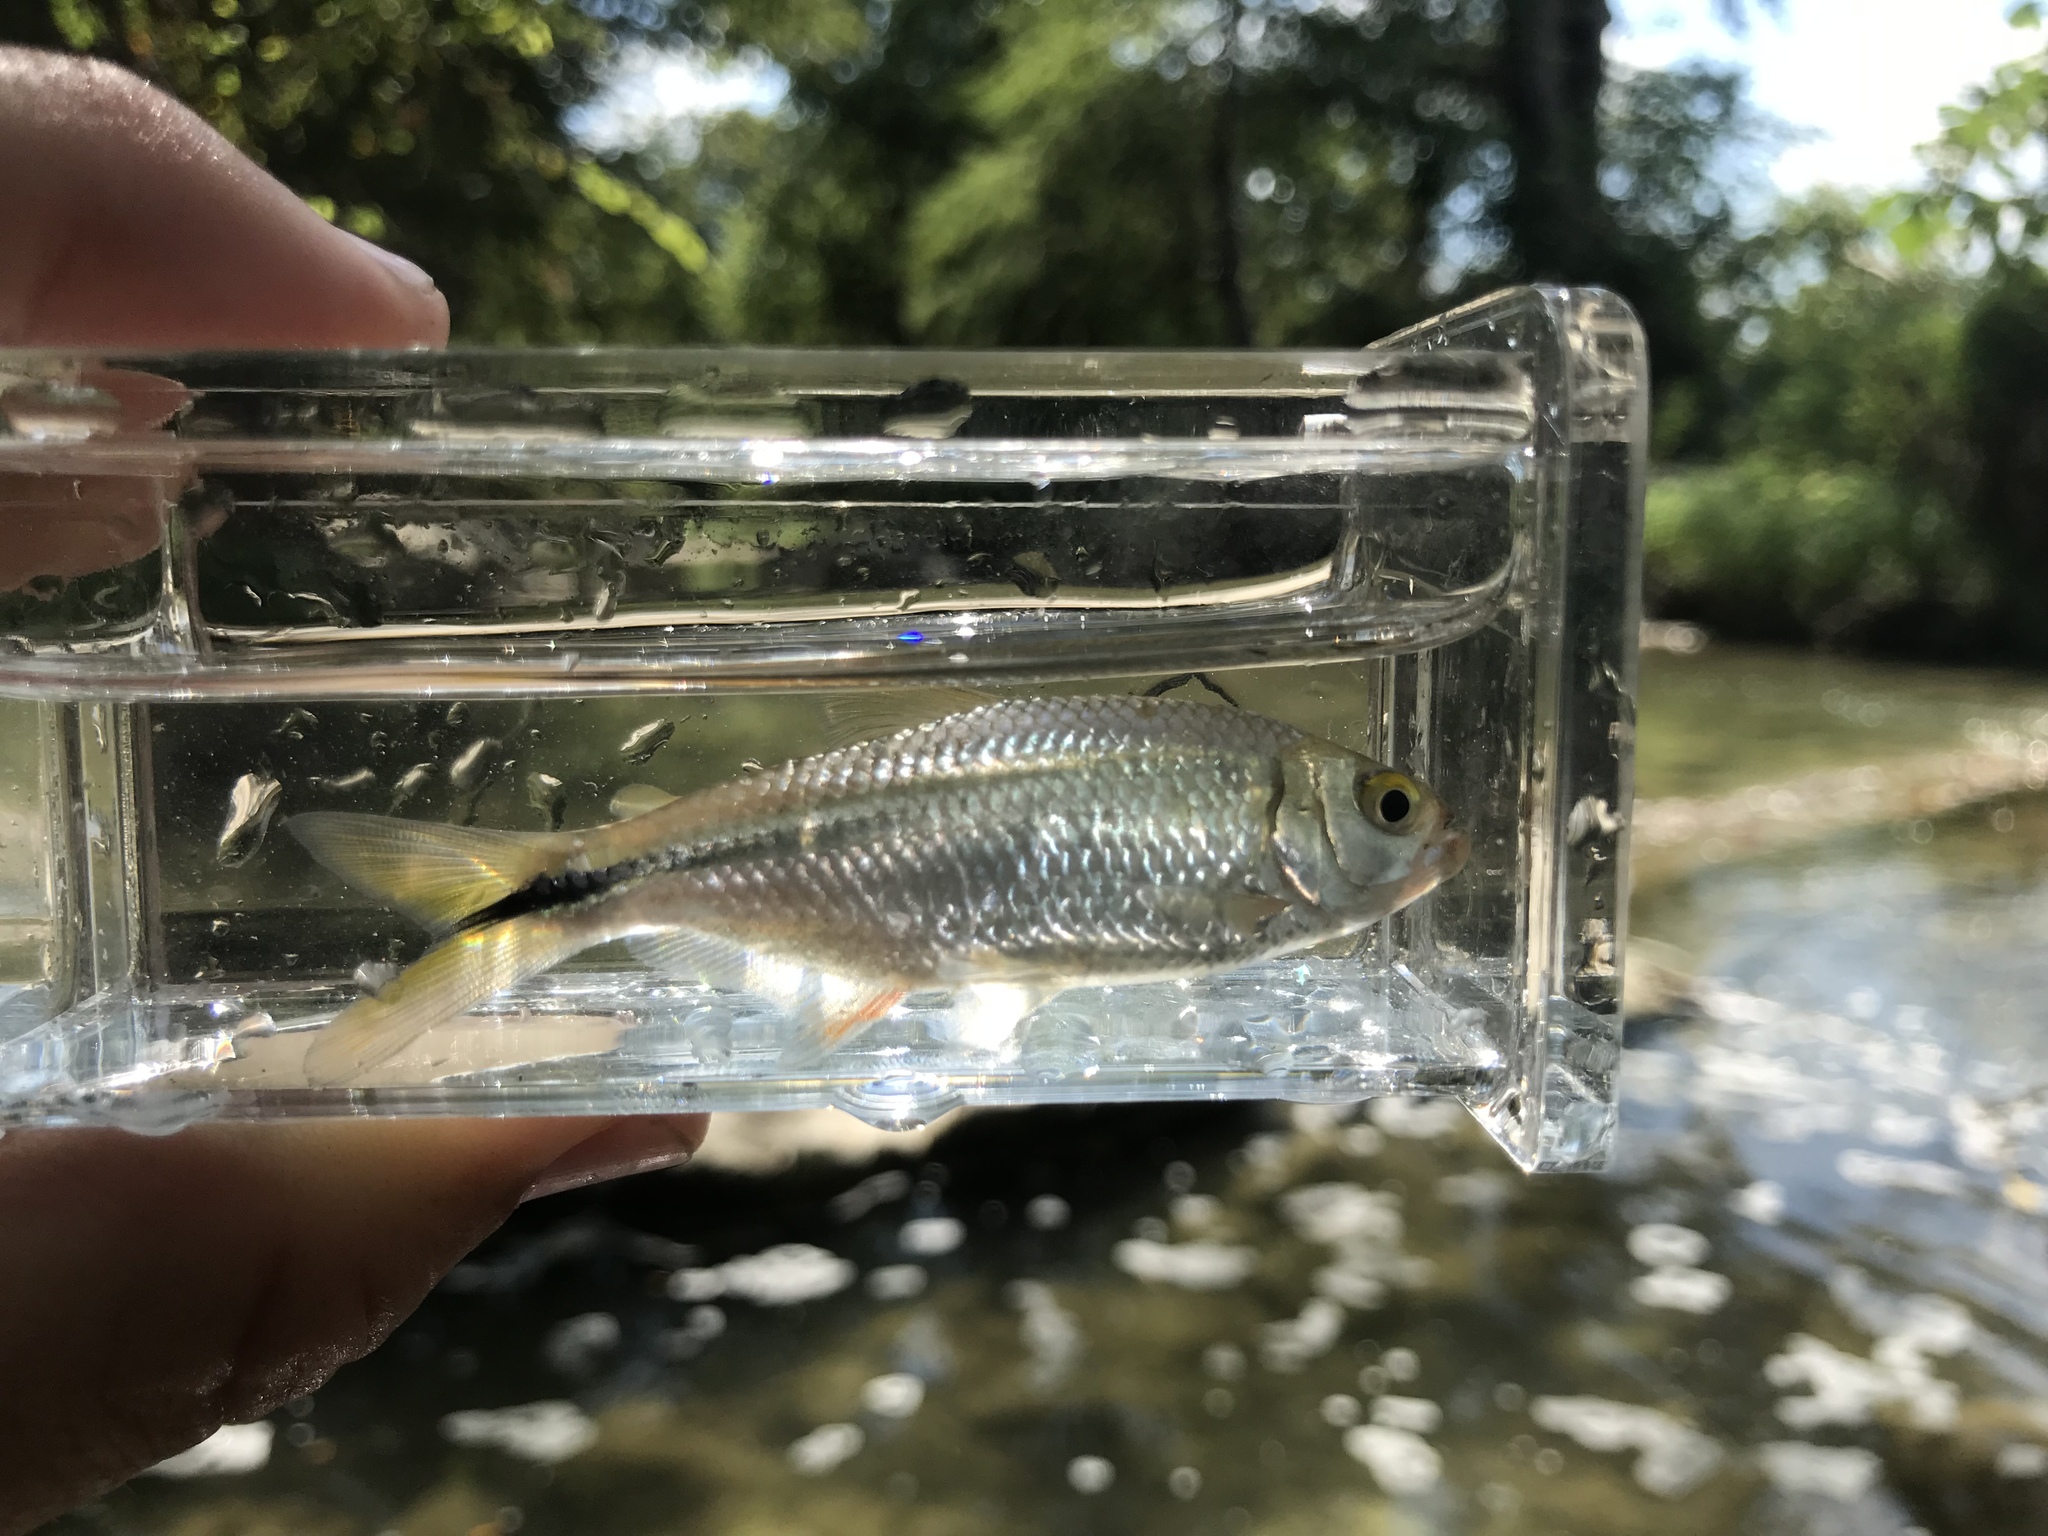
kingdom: Animalia
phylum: Chordata
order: Characiformes
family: Characidae
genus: Astyanax
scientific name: Astyanax mexicanus
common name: Mexican tetra
